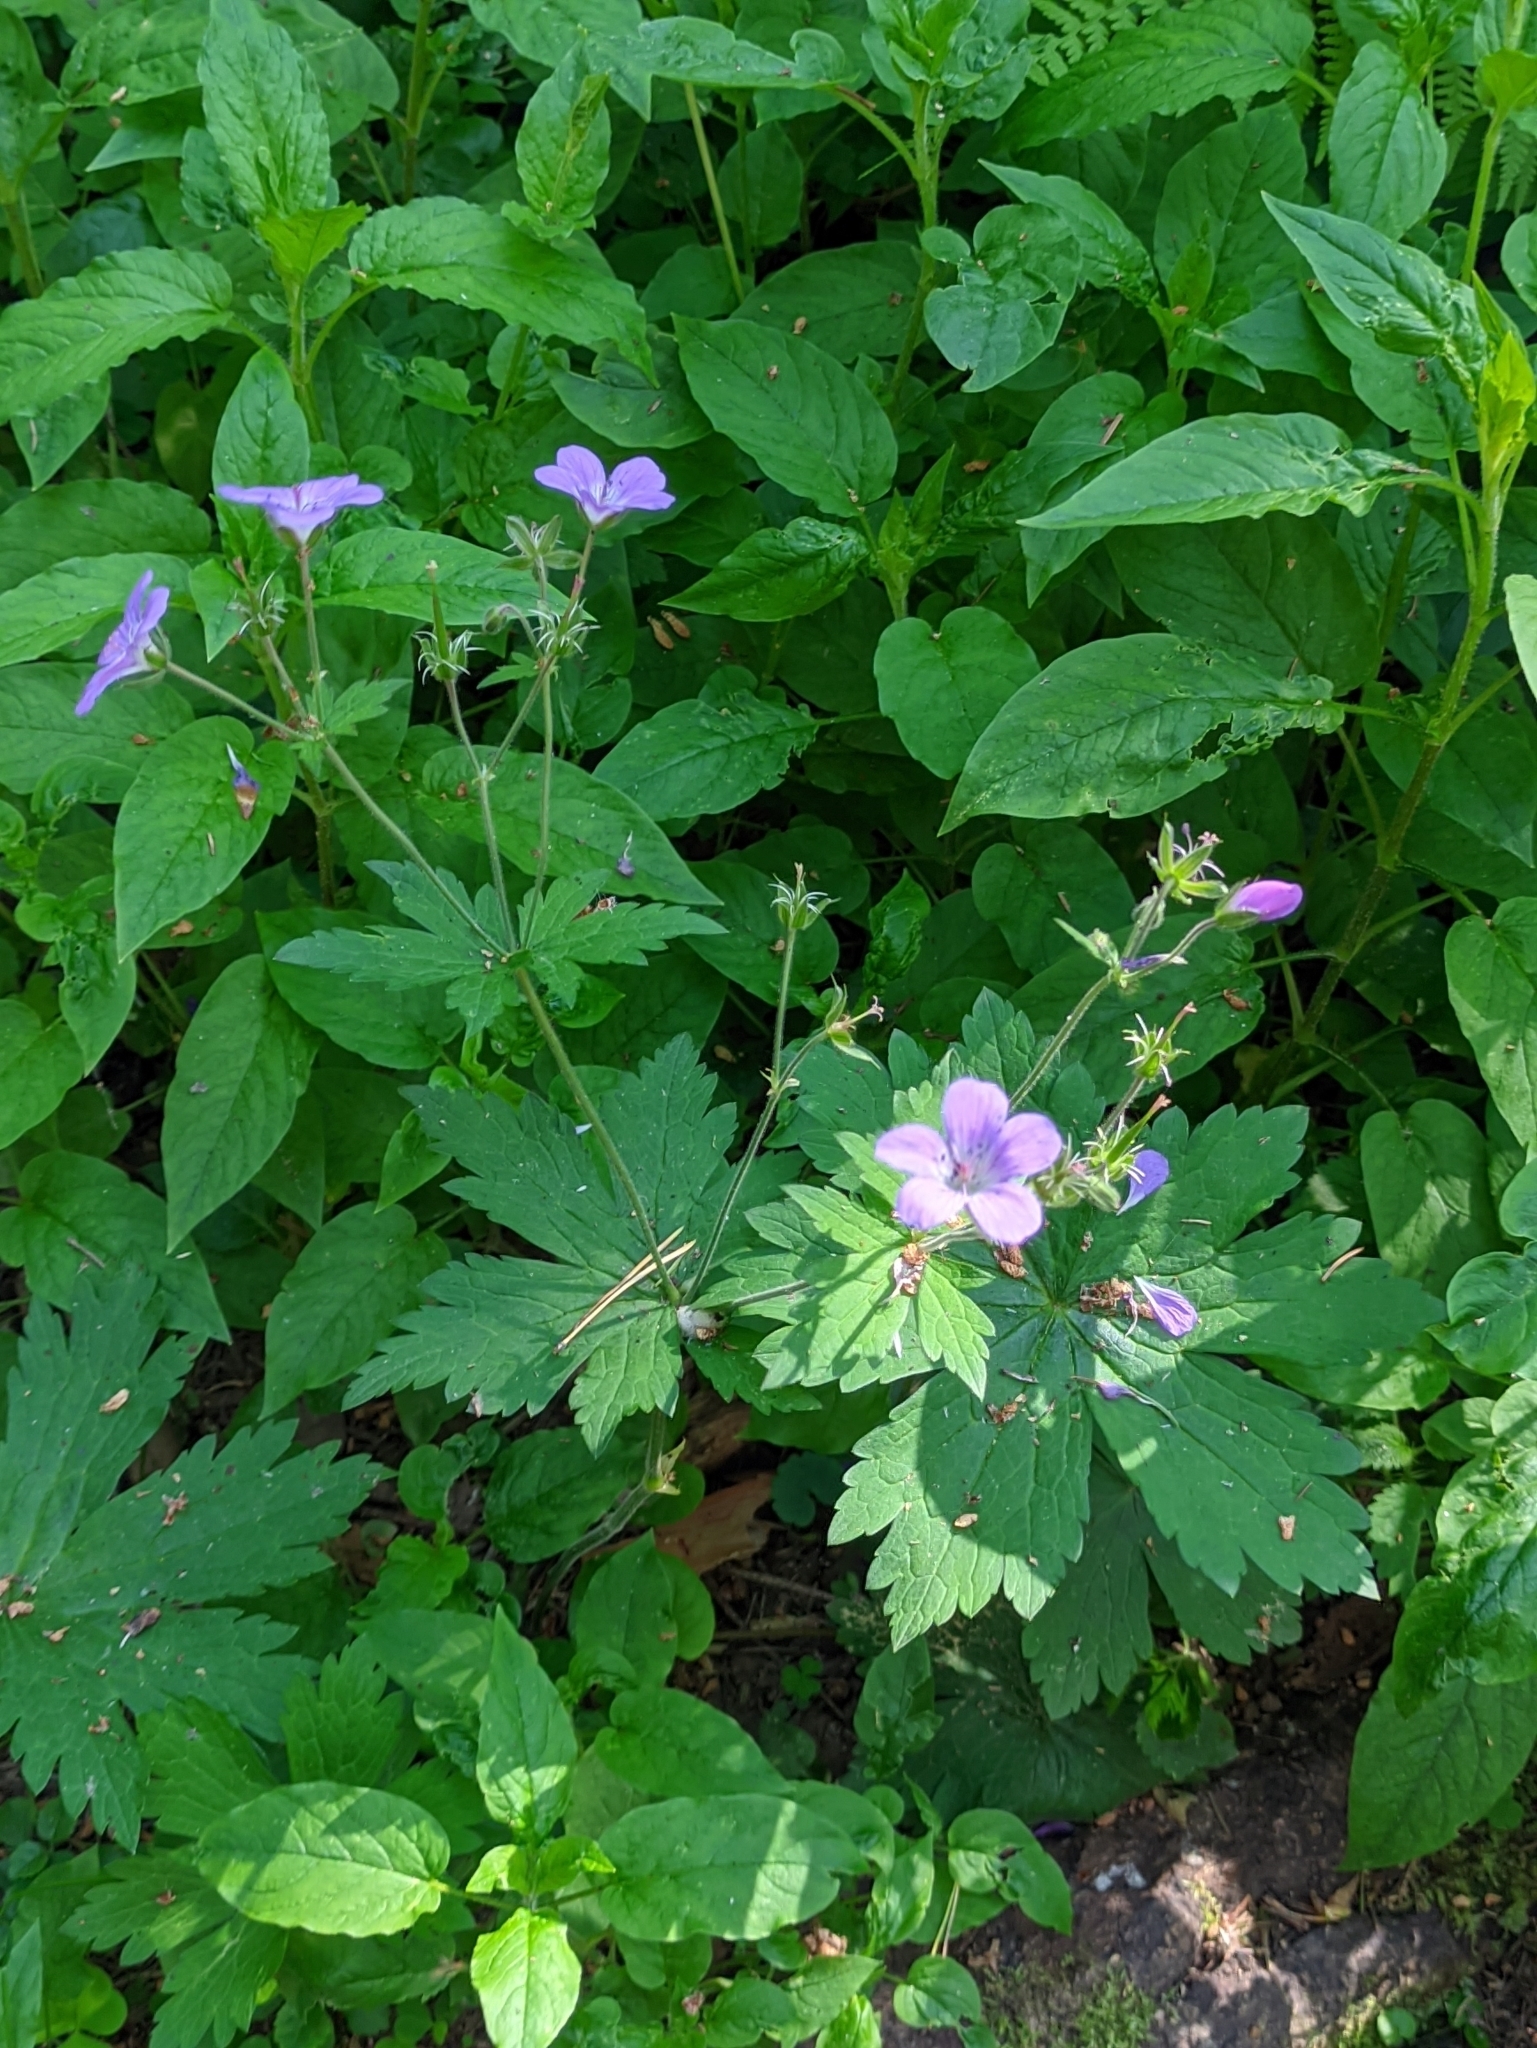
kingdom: Plantae
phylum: Tracheophyta
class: Magnoliopsida
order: Geraniales
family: Geraniaceae
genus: Geranium
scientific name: Geranium sylvaticum
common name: Wood crane's-bill
